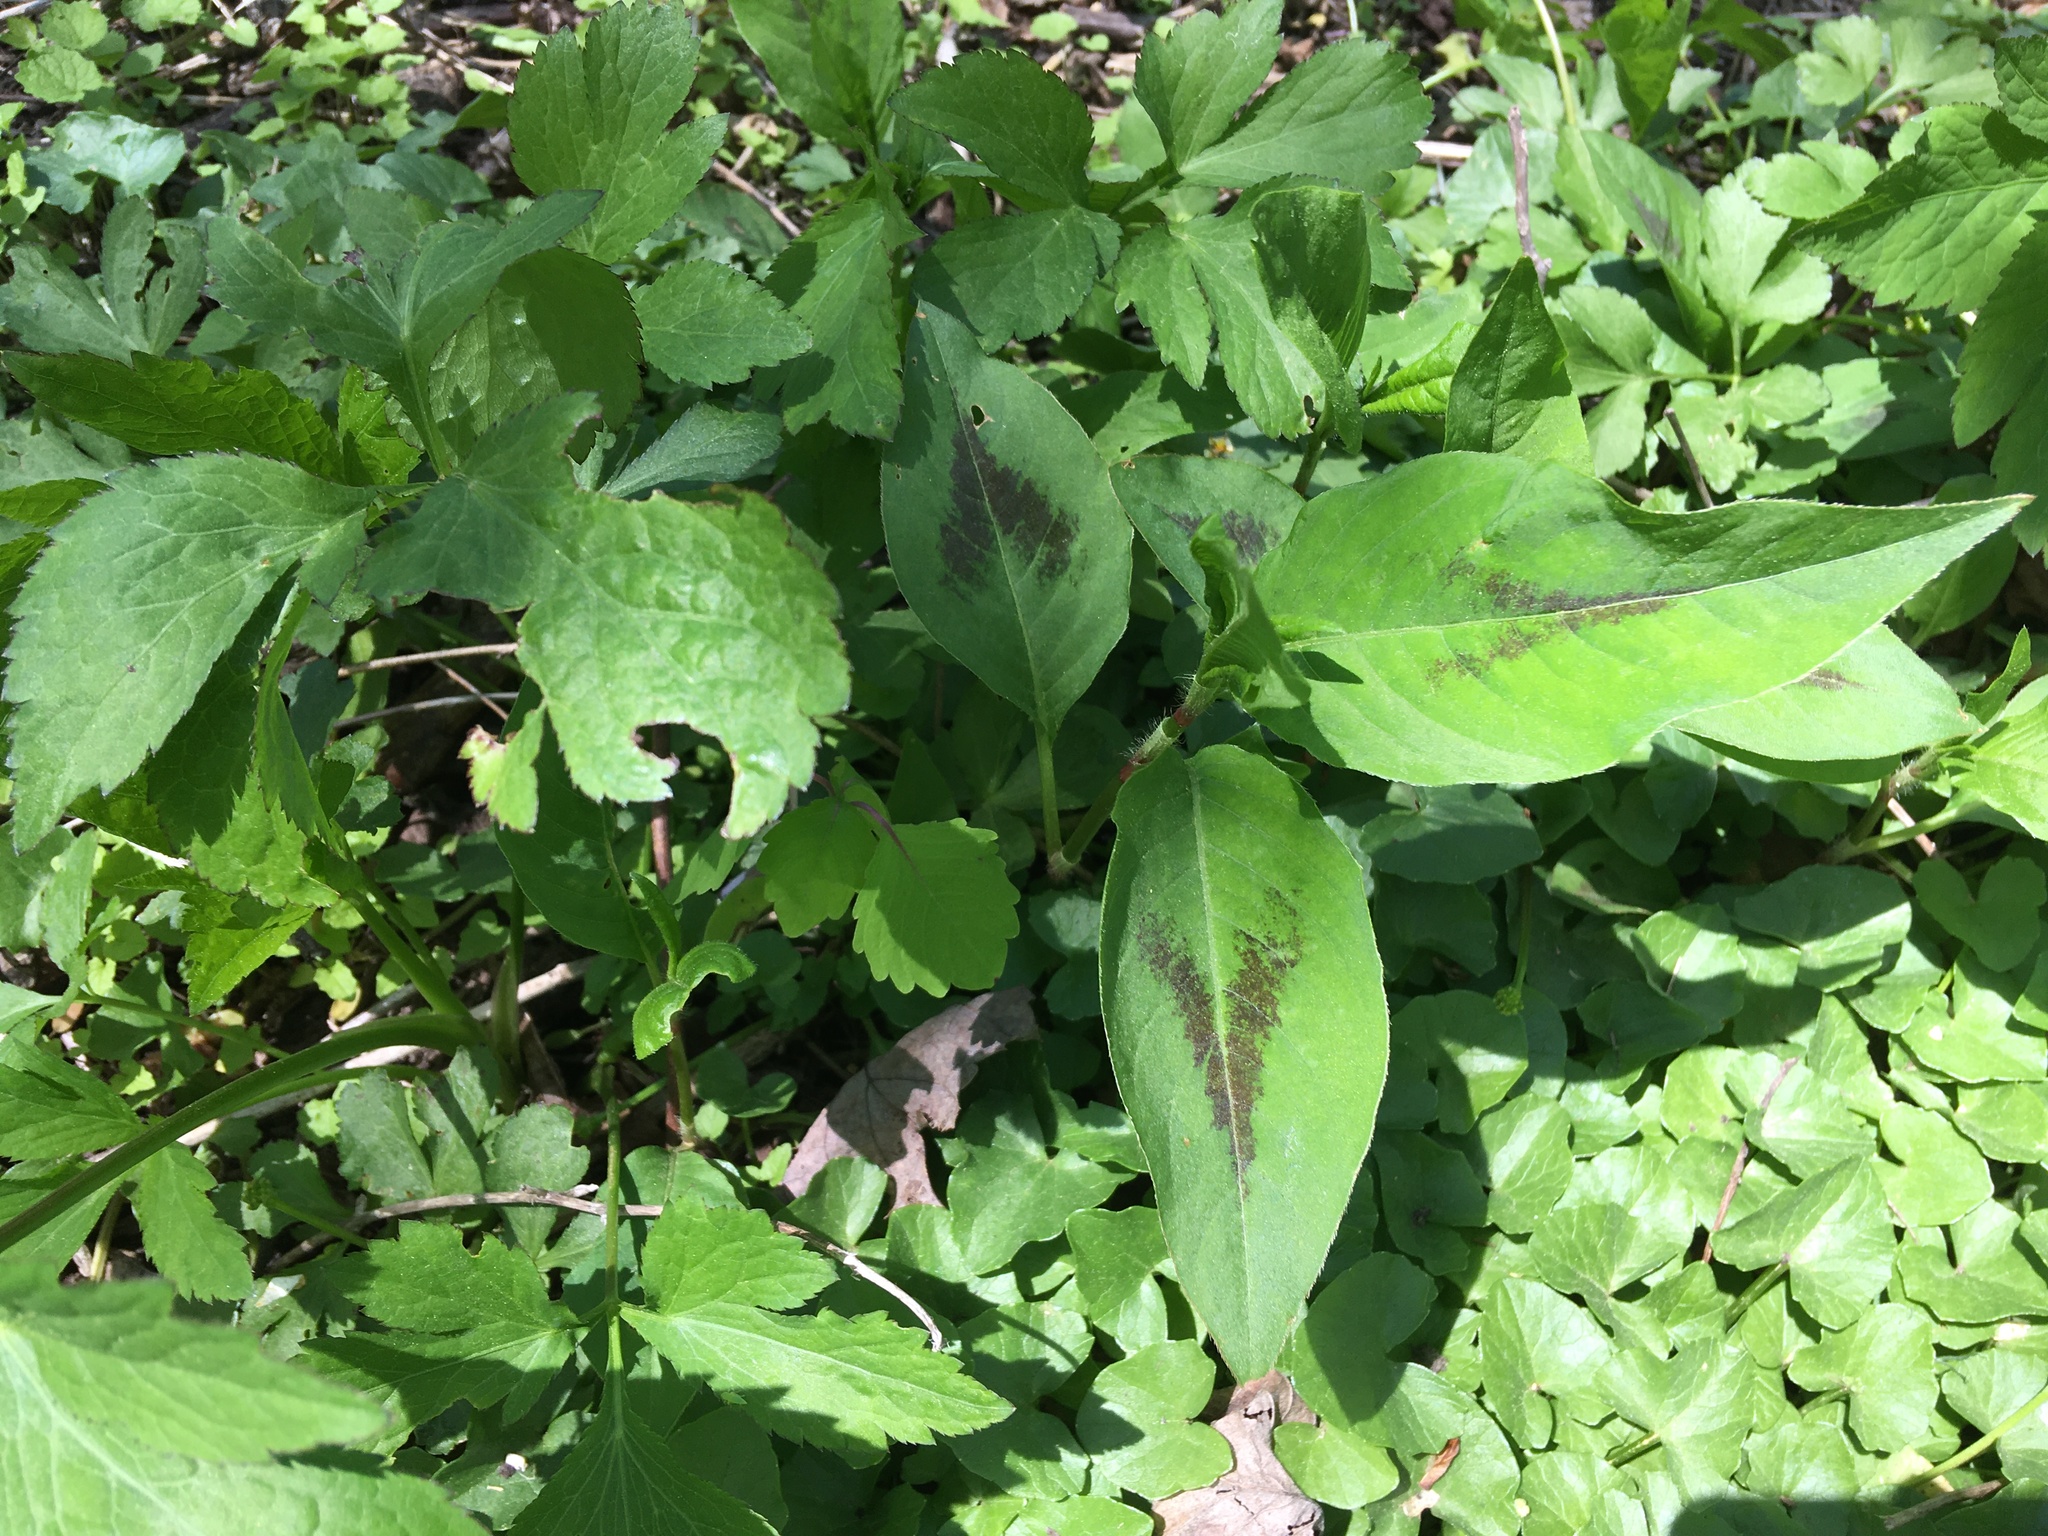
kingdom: Plantae
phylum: Tracheophyta
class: Magnoliopsida
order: Caryophyllales
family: Polygonaceae
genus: Persicaria
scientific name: Persicaria virginiana
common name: Jumpseed
